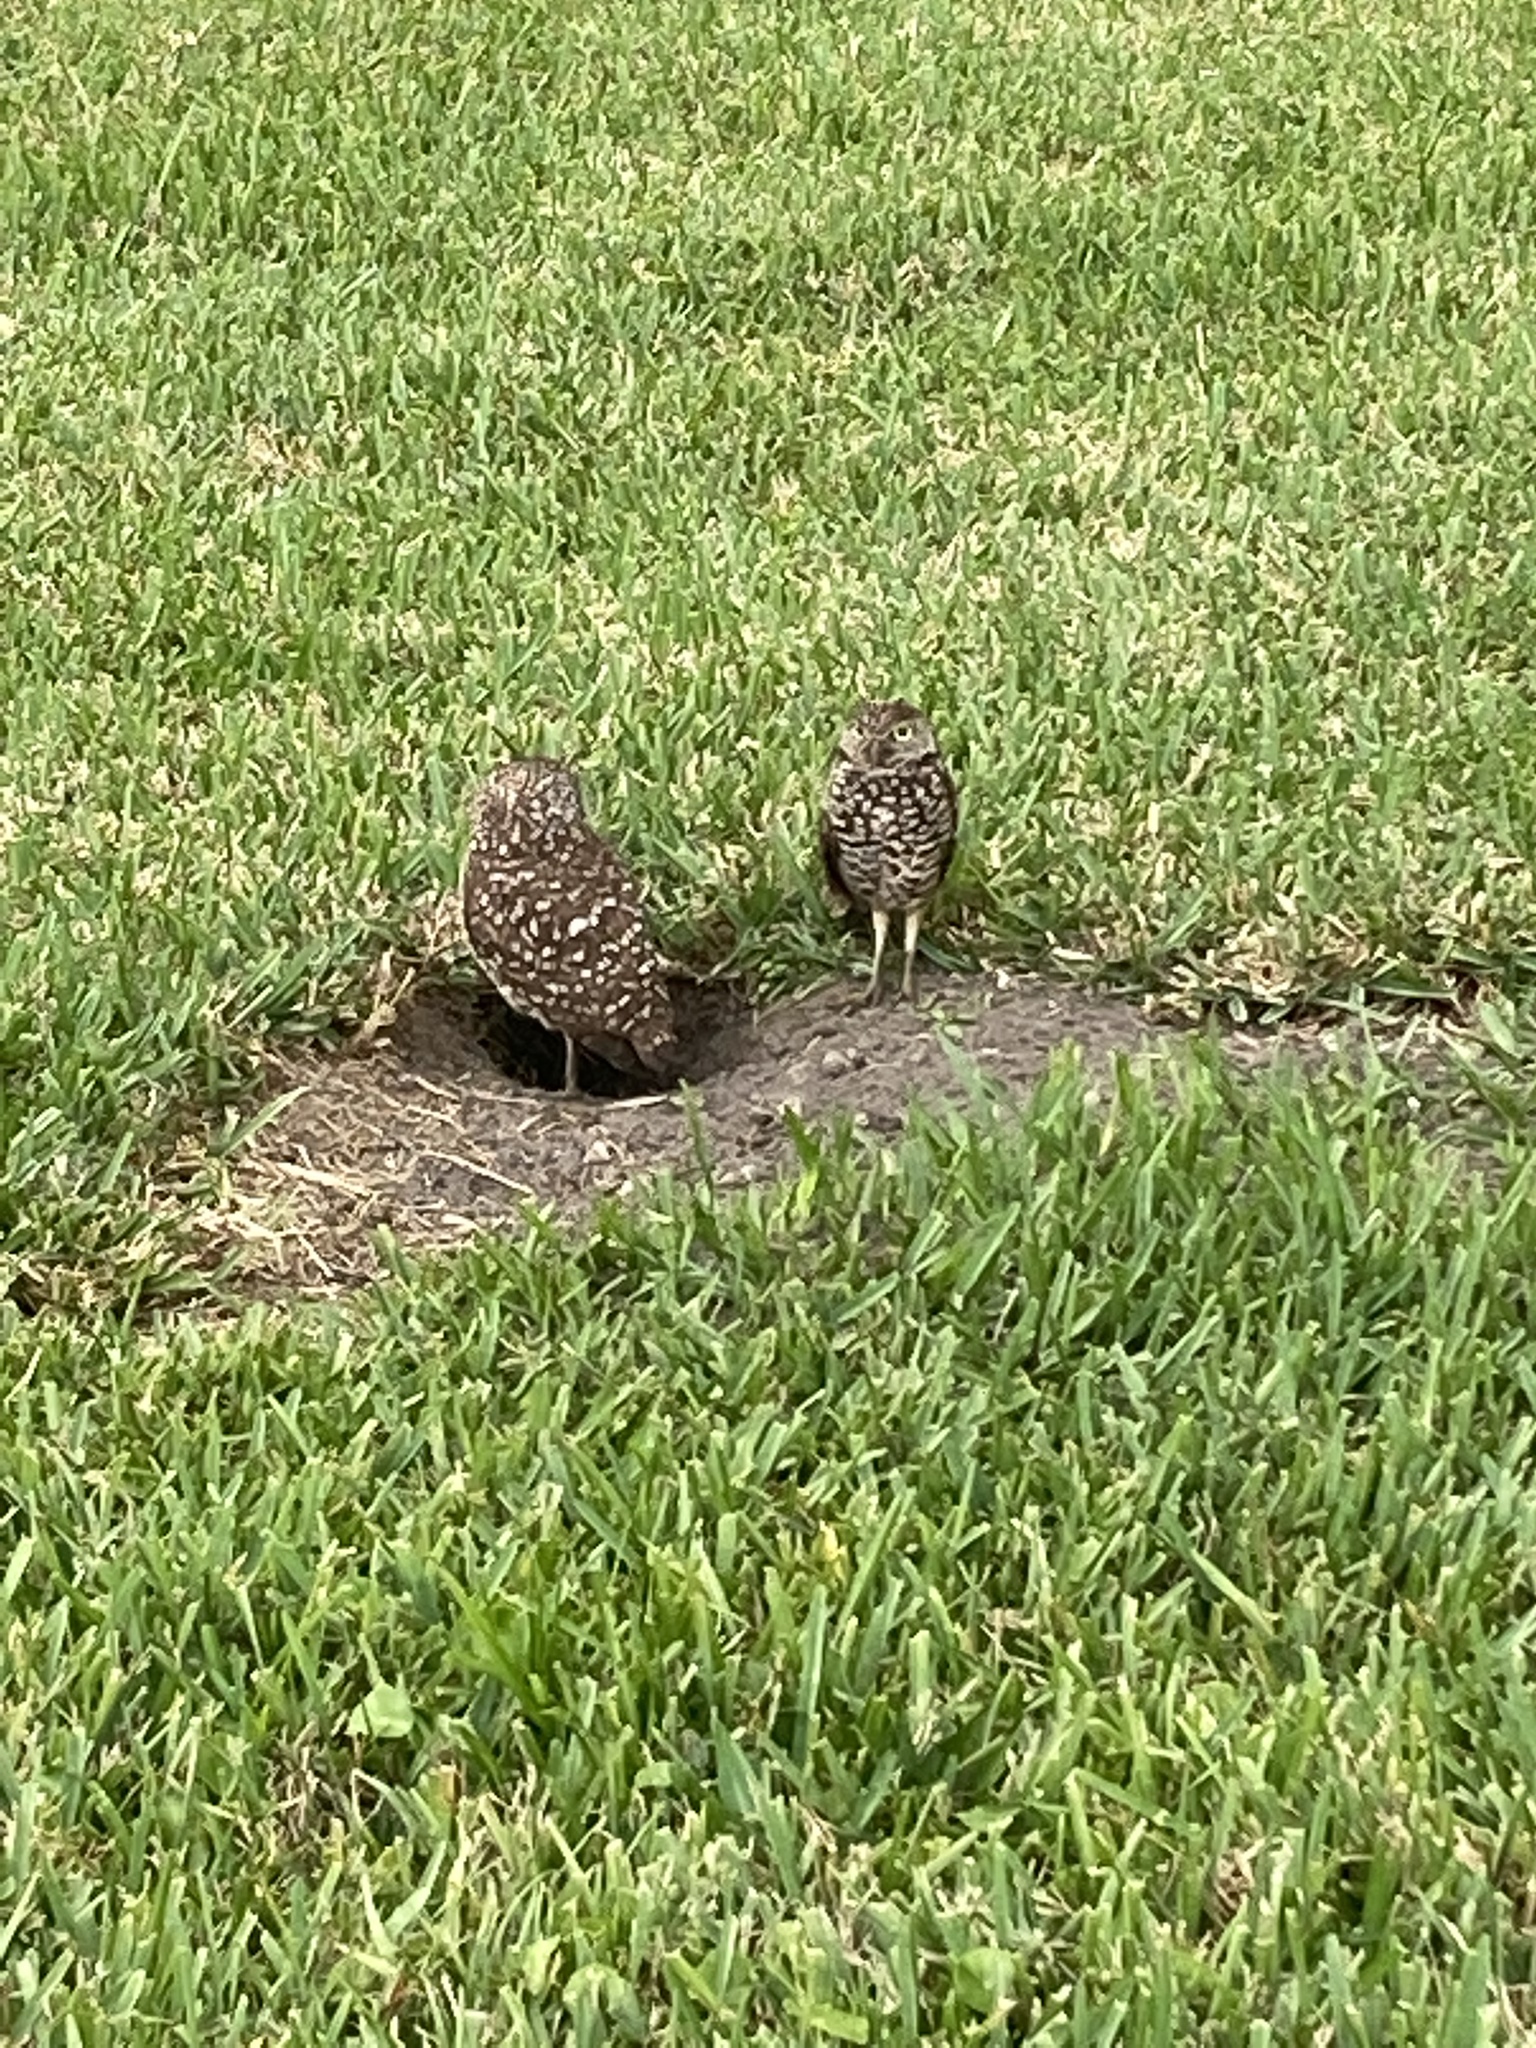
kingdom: Animalia
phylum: Chordata
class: Aves
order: Strigiformes
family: Strigidae
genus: Athene
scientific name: Athene cunicularia
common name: Burrowing owl
